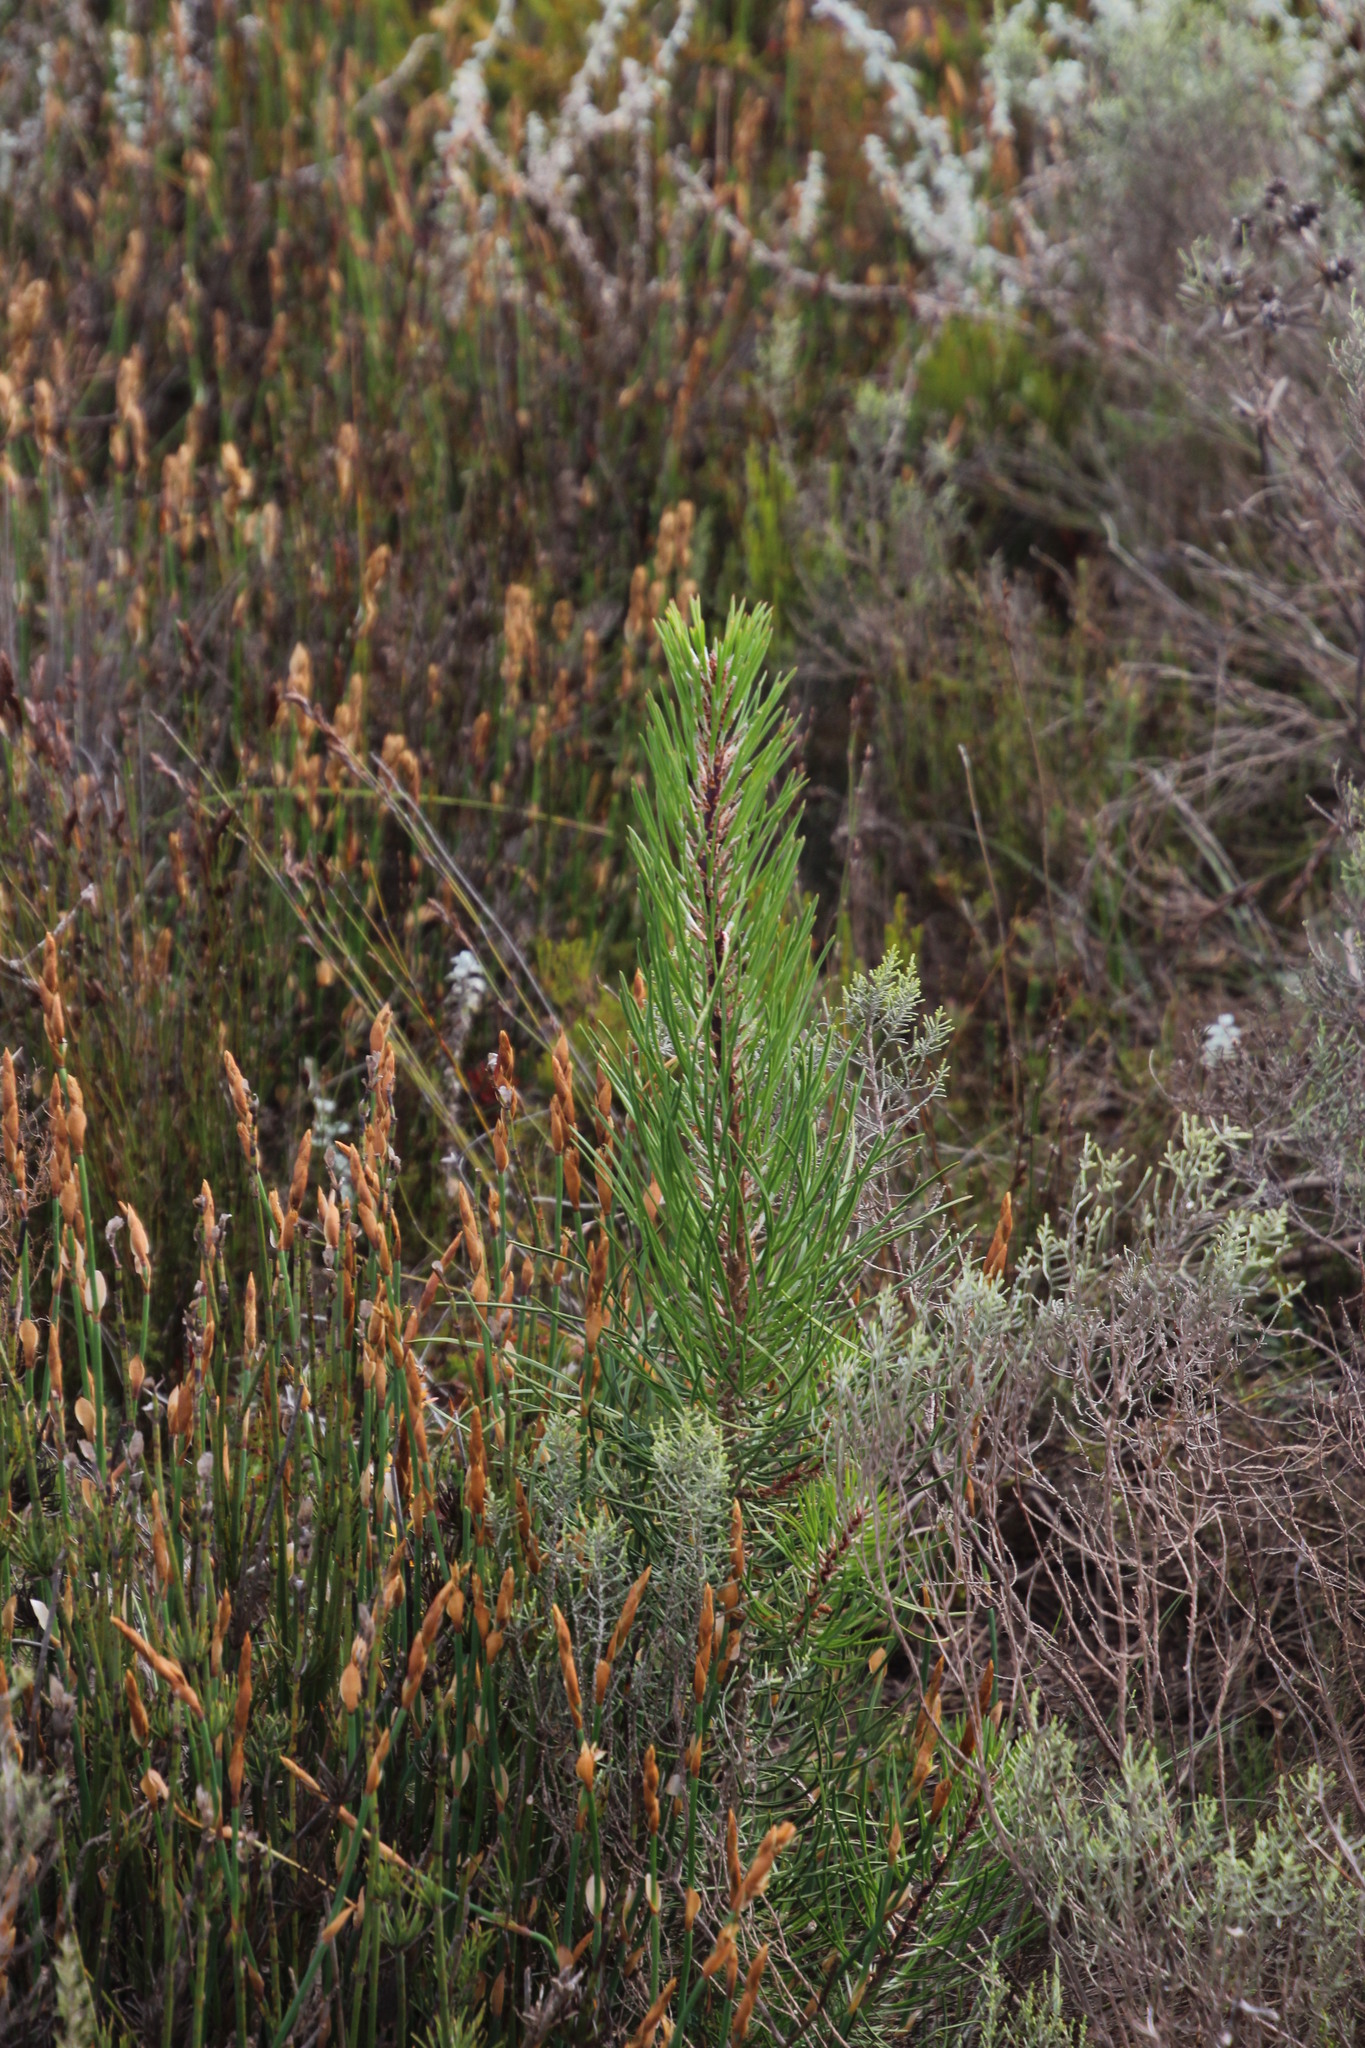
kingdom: Plantae
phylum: Tracheophyta
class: Pinopsida
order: Pinales
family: Pinaceae
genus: Pinus
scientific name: Pinus pinaster
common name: Maritime pine
